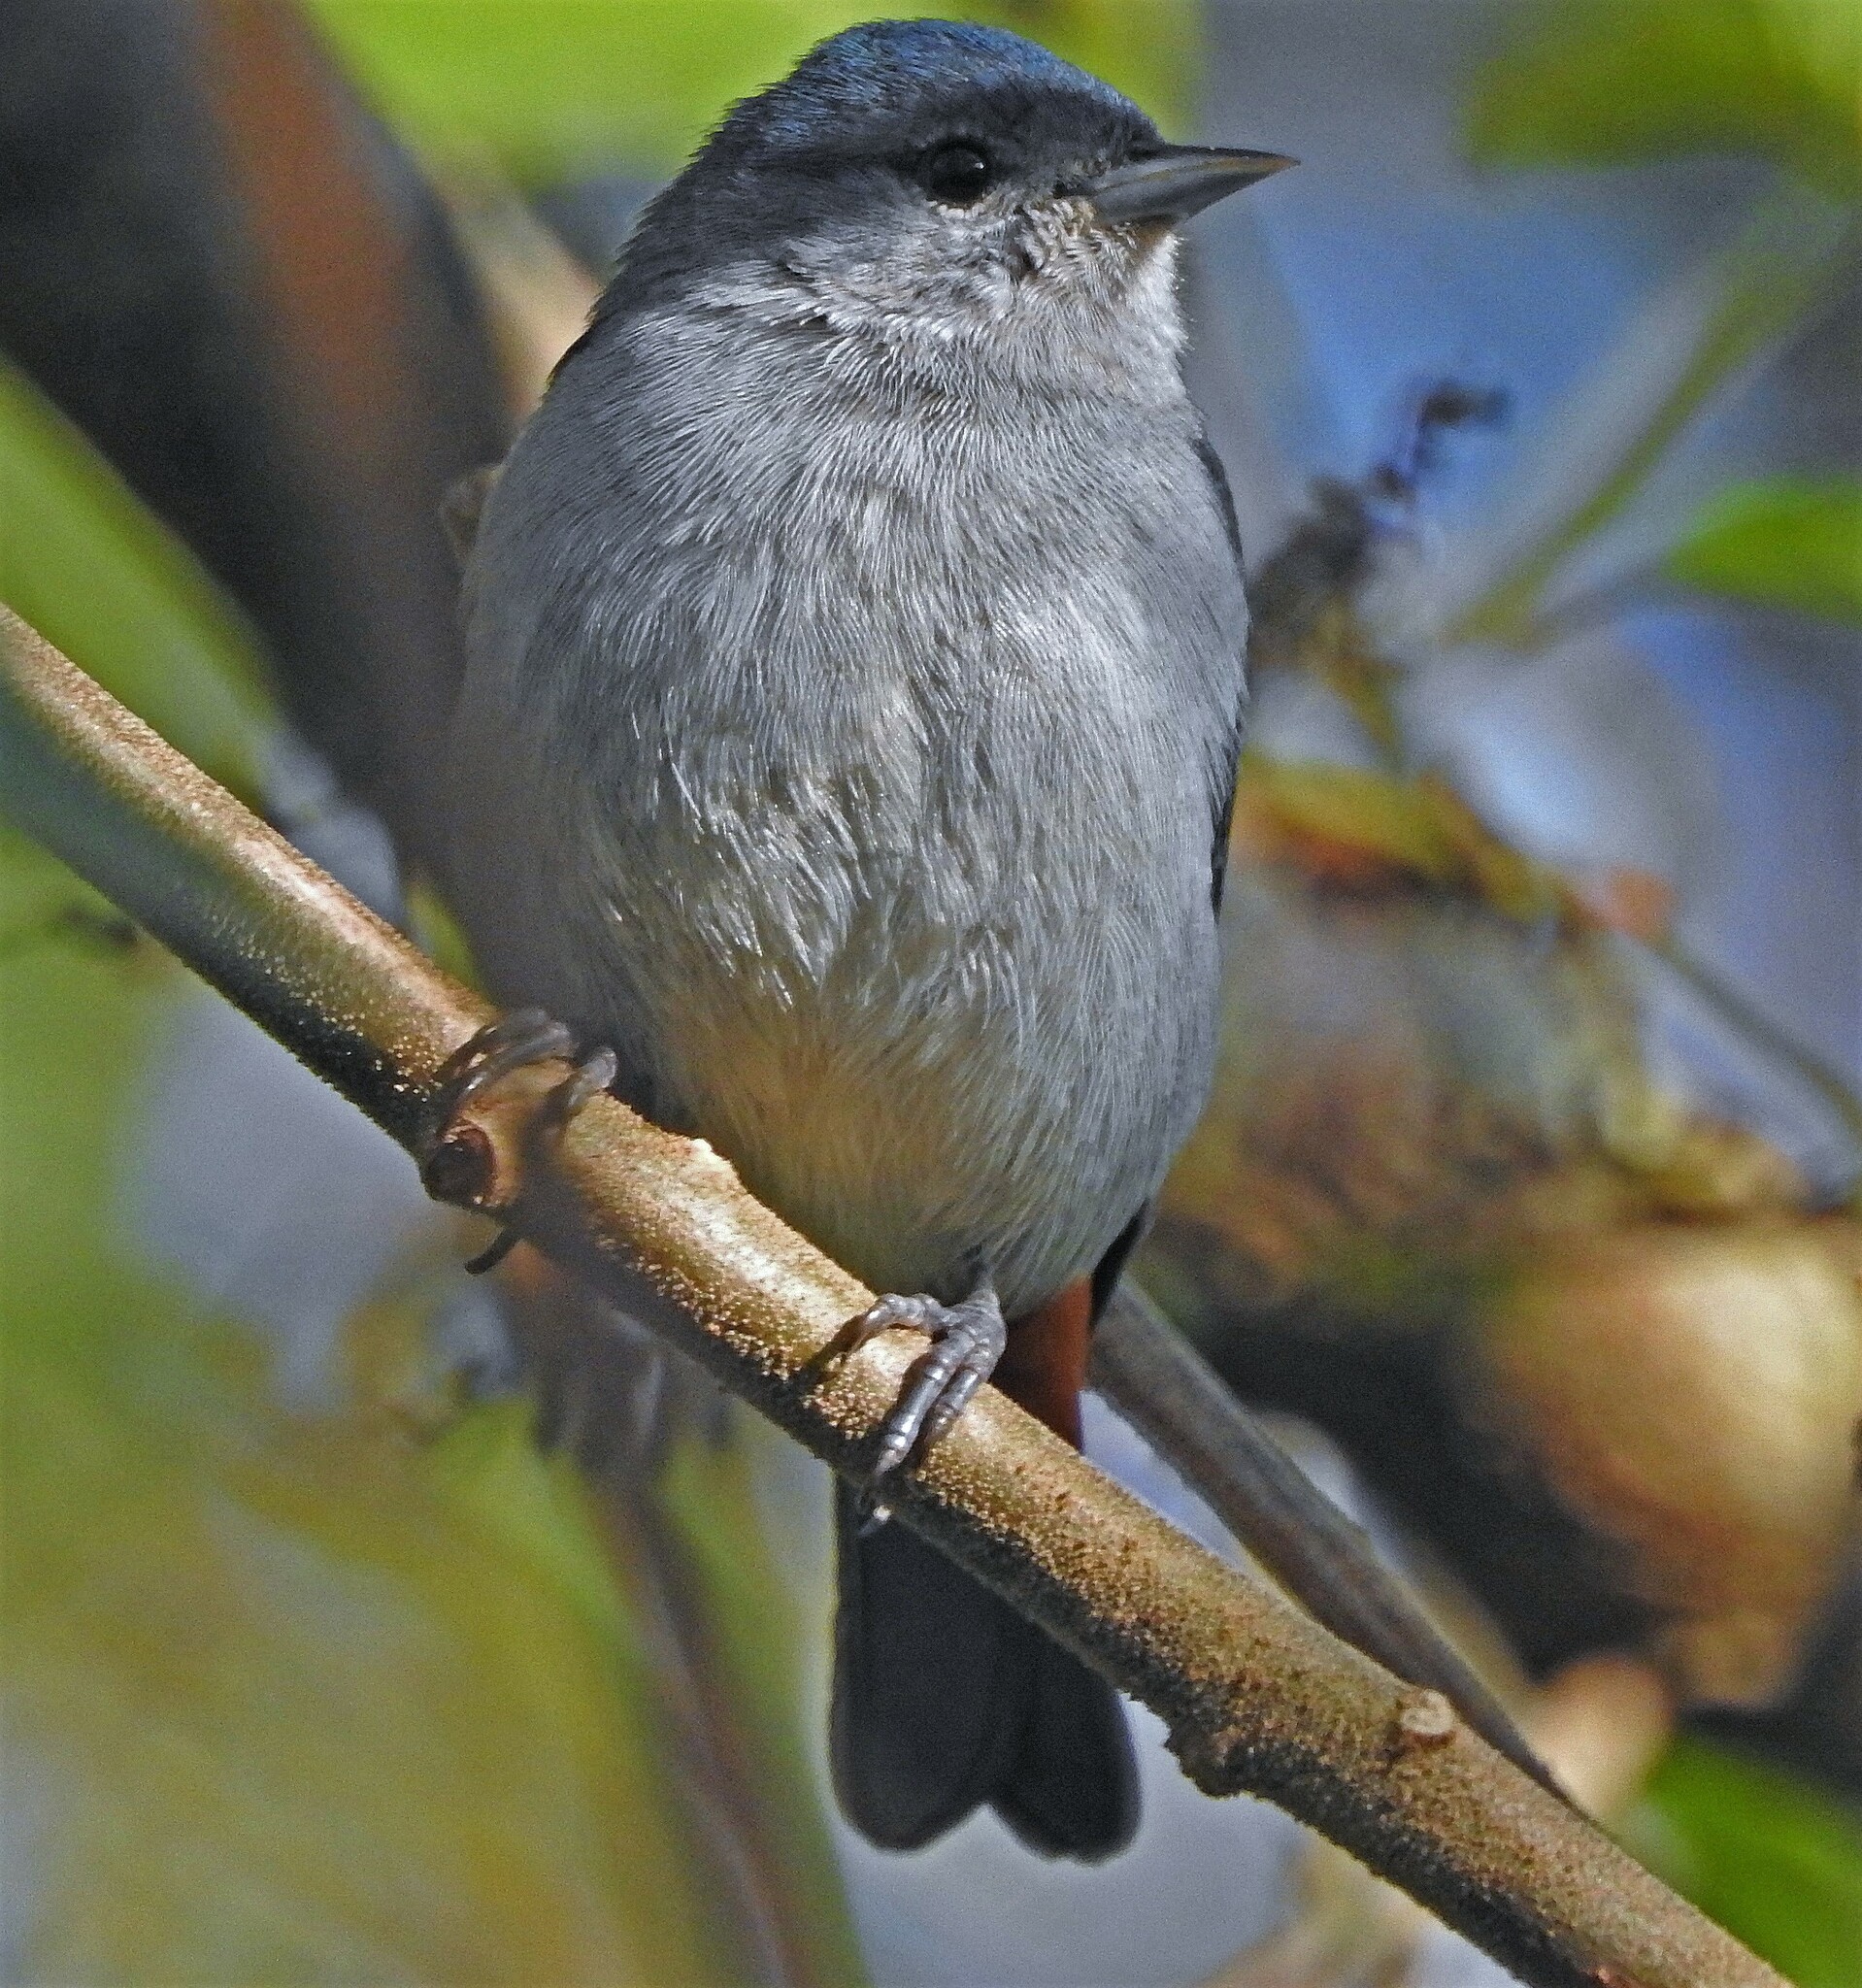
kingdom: Animalia
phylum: Chordata
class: Aves
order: Passeriformes
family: Thraupidae
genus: Conirostrum
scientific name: Conirostrum speciosum
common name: Chestnut-vented conebill
